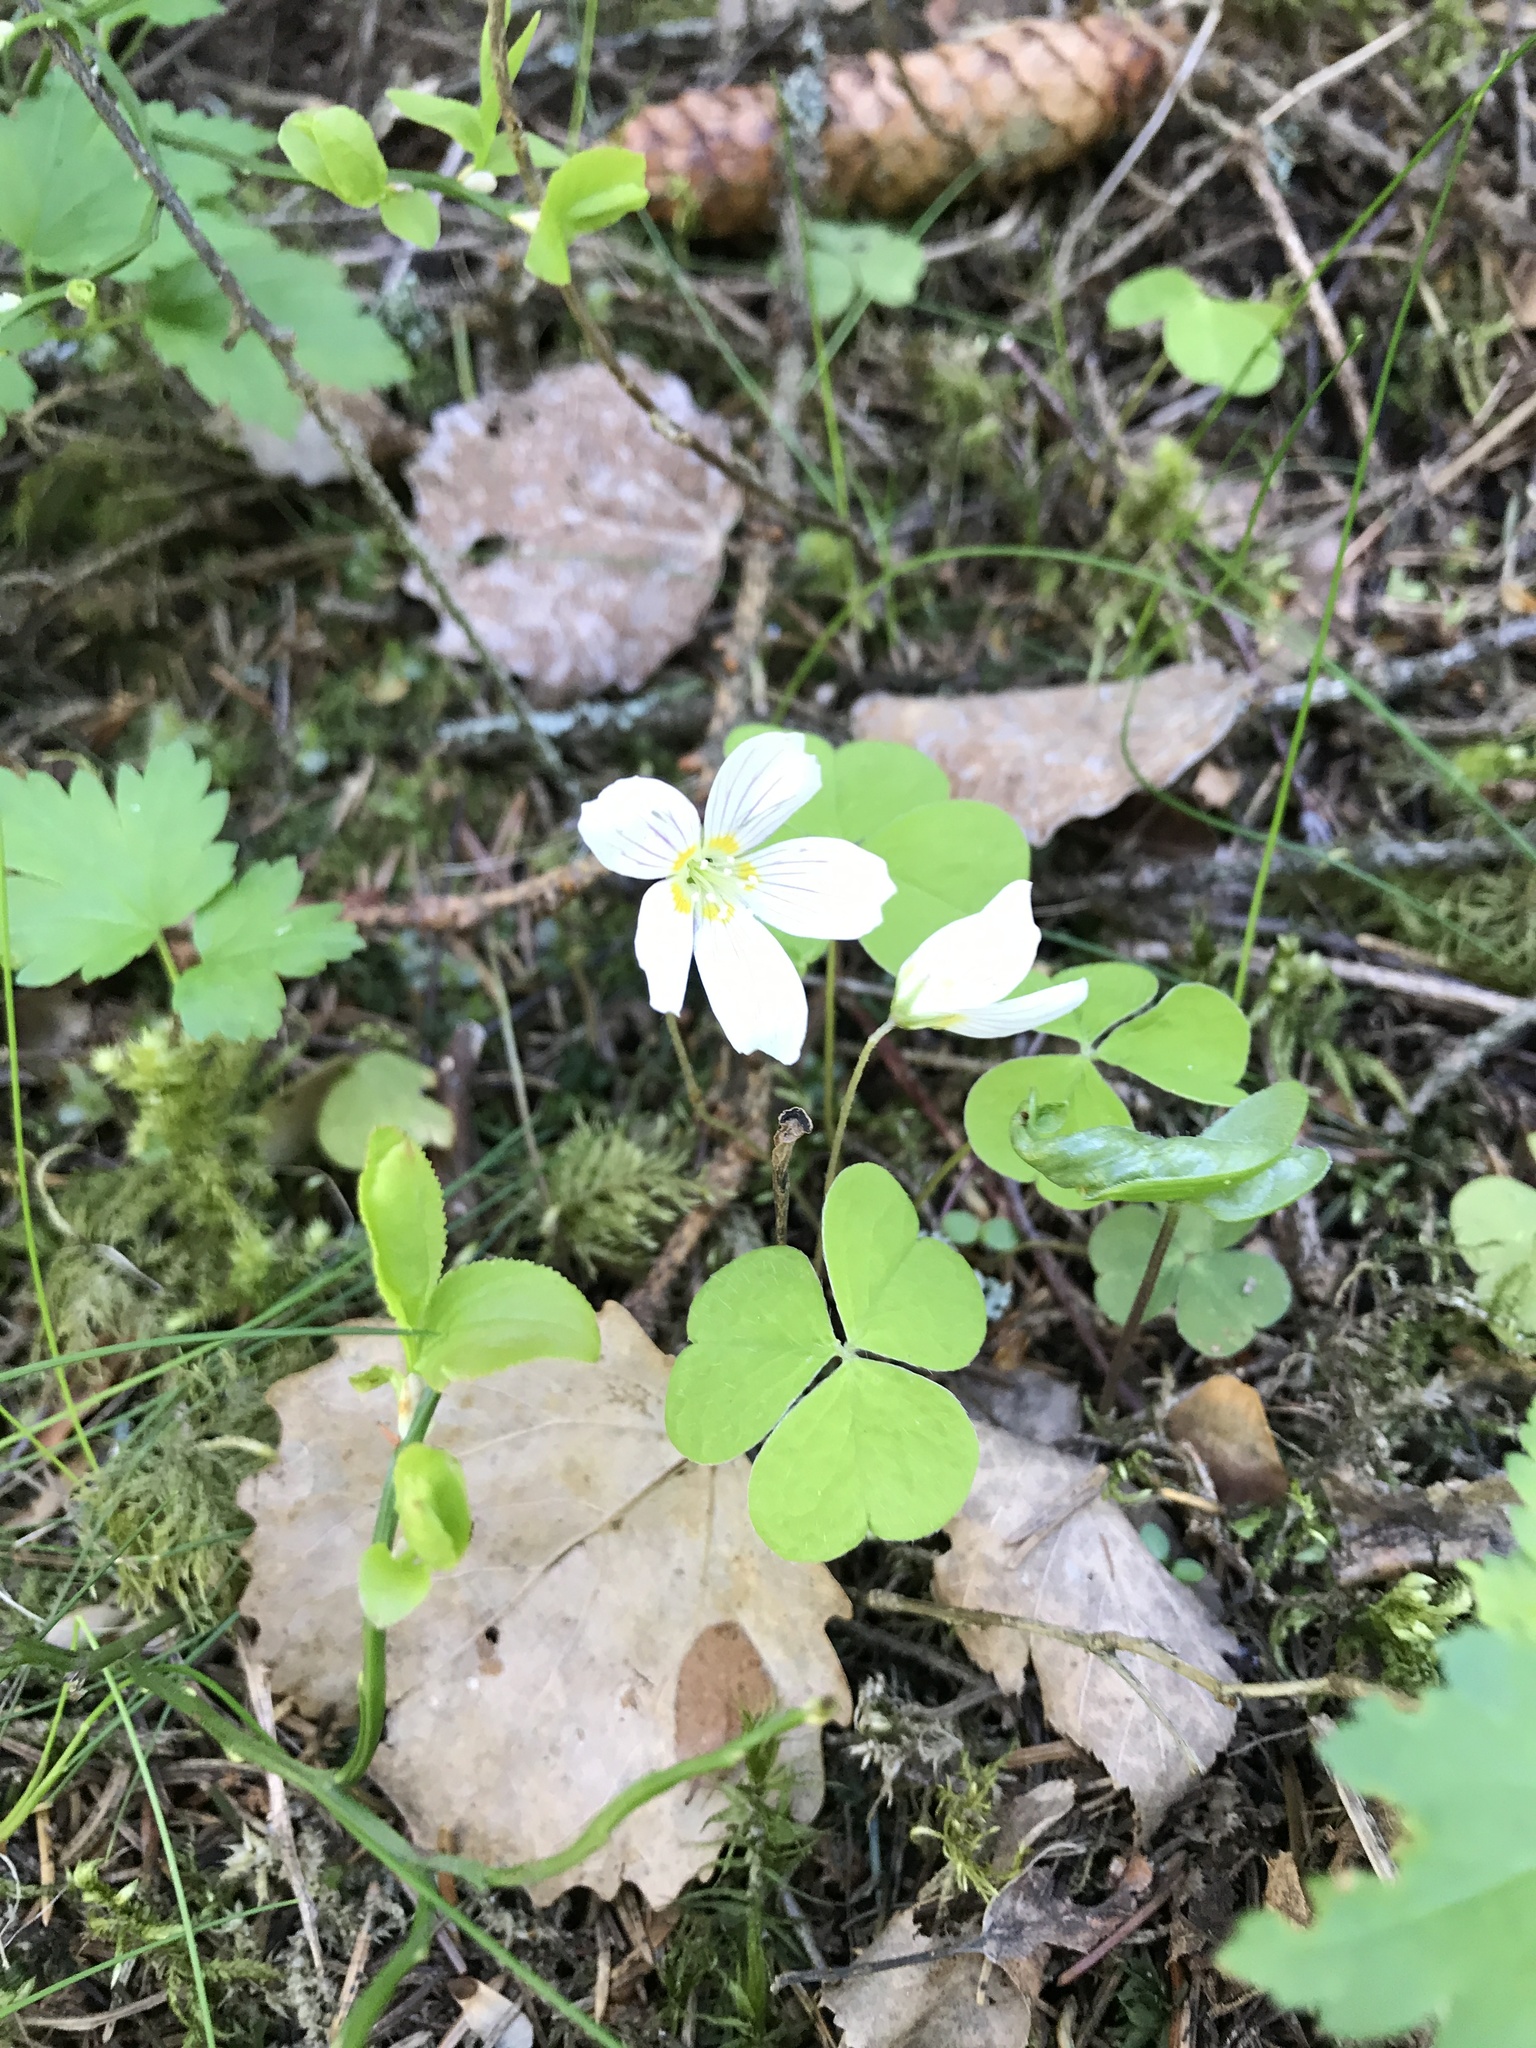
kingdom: Plantae
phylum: Tracheophyta
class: Magnoliopsida
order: Oxalidales
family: Oxalidaceae
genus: Oxalis
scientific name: Oxalis acetosella
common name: Wood-sorrel
